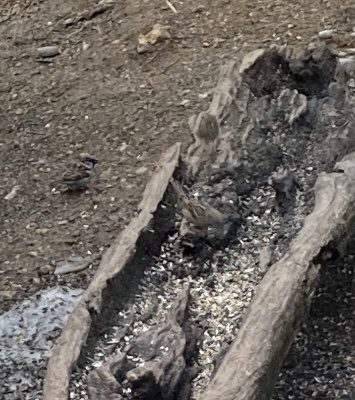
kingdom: Animalia
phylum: Chordata
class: Aves
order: Passeriformes
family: Passeridae
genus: Passer
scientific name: Passer domesticus
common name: House sparrow
